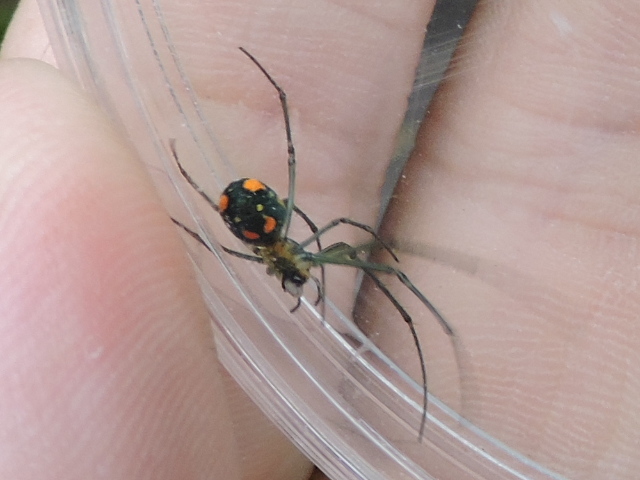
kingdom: Animalia
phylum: Arthropoda
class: Arachnida
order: Araneae
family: Tetragnathidae
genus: Leucauge
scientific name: Leucauge argyrobapta
